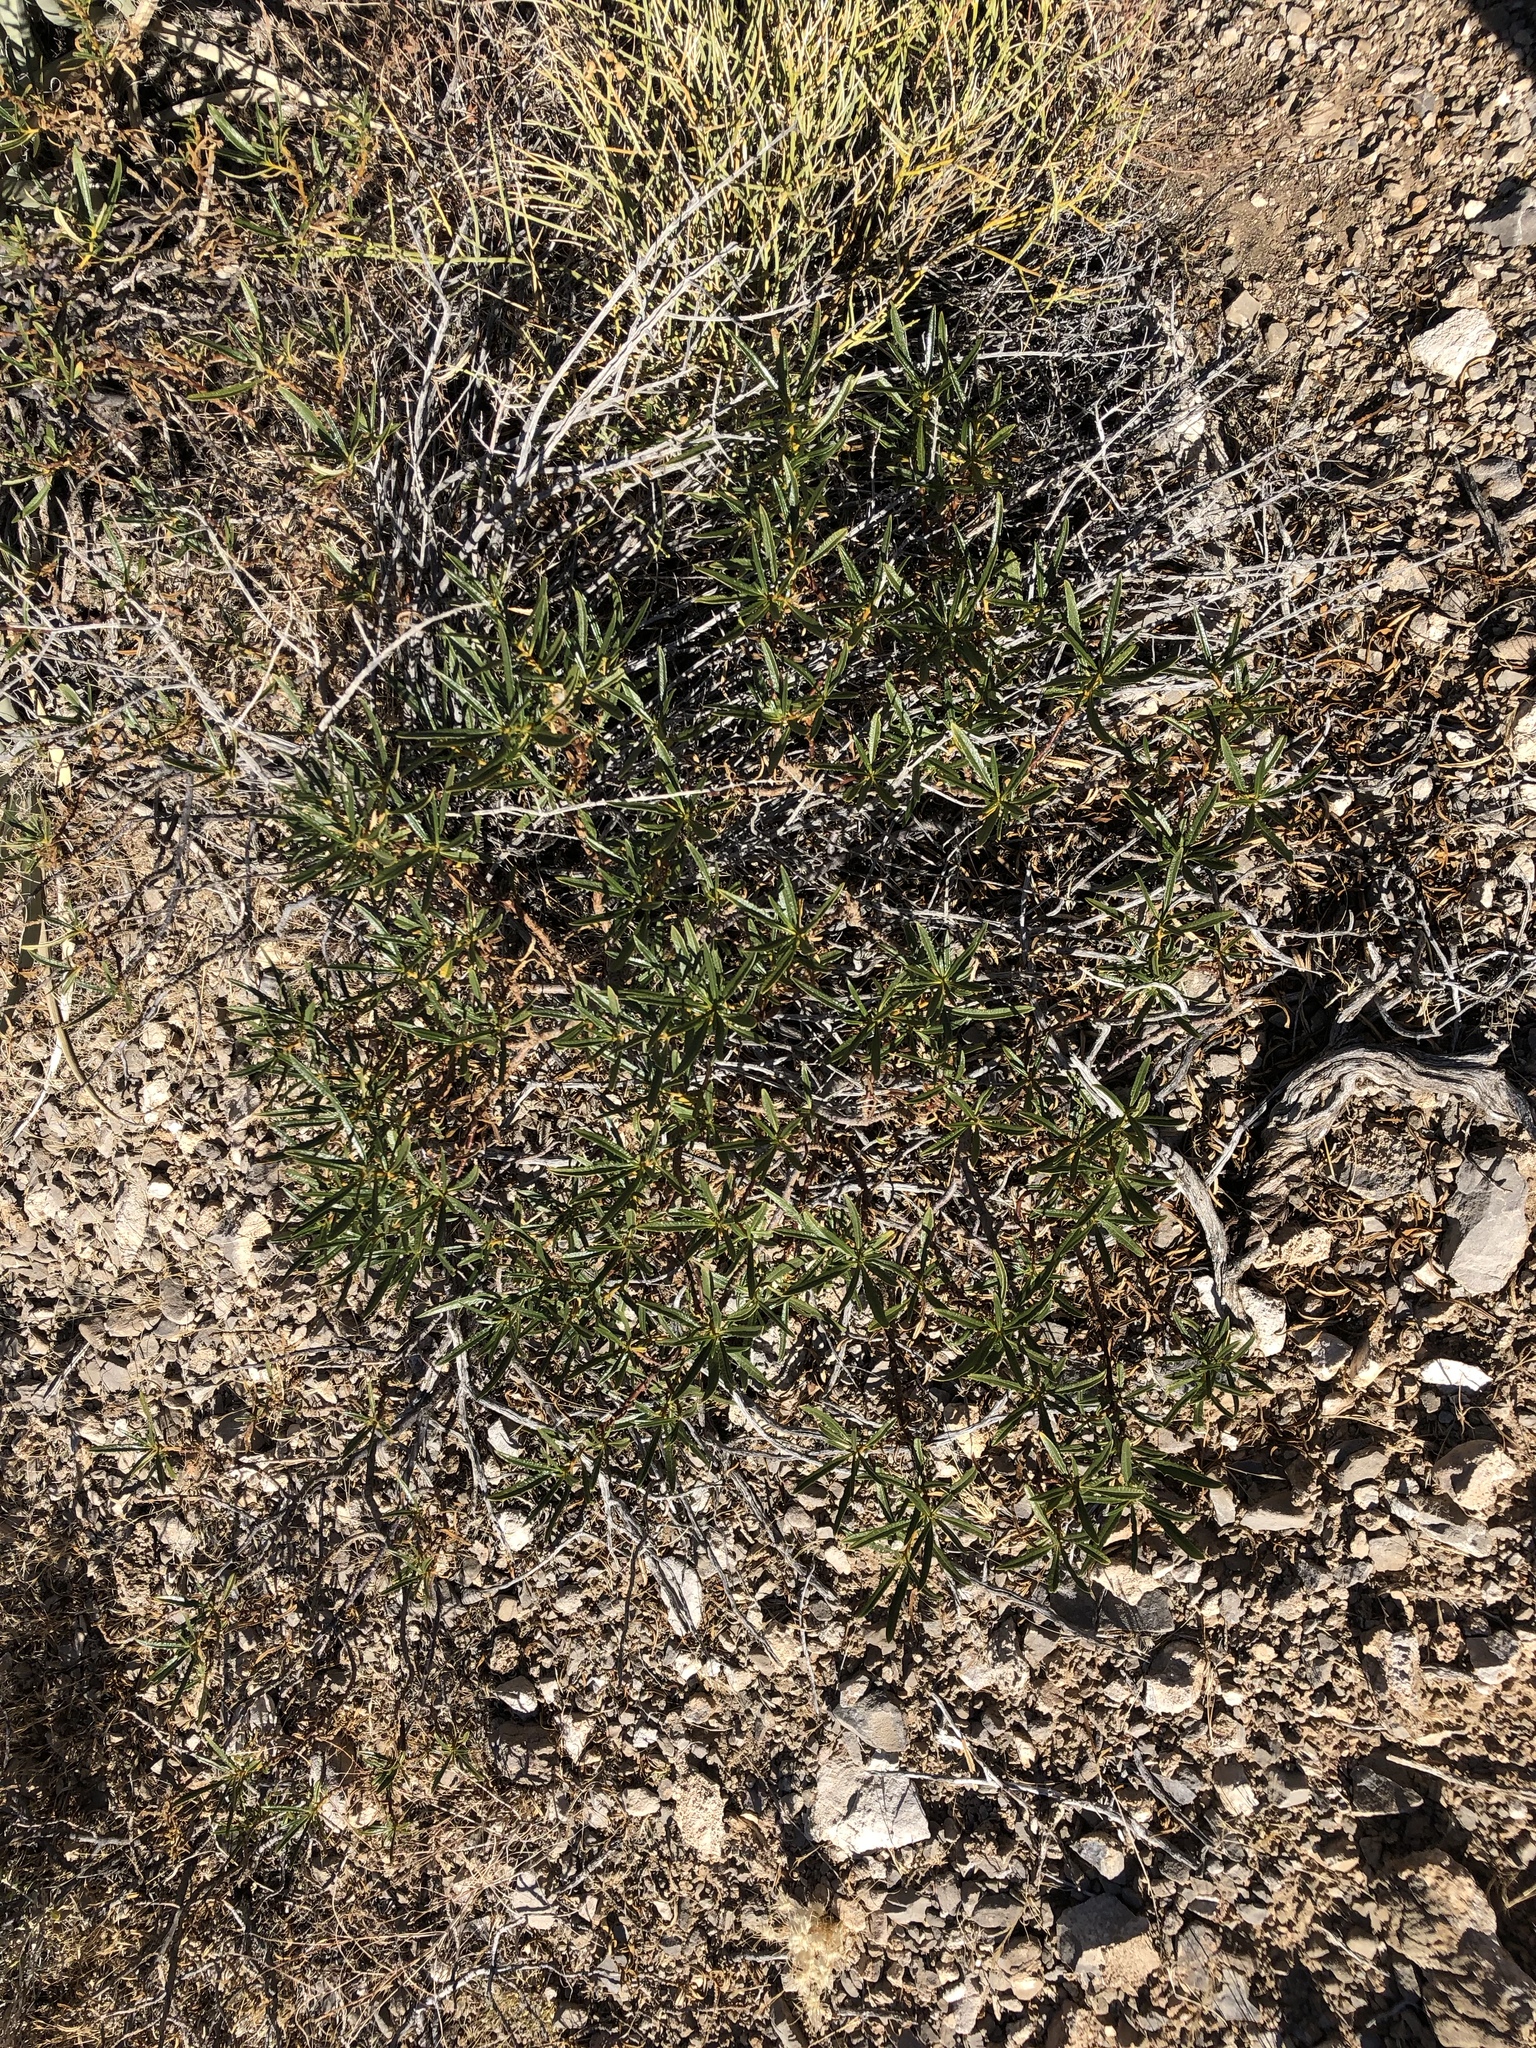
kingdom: Plantae
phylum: Tracheophyta
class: Magnoliopsida
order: Boraginales
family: Namaceae
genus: Eriodictyon
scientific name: Eriodictyon angustifolium
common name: Narrow-leaf yerba santa
